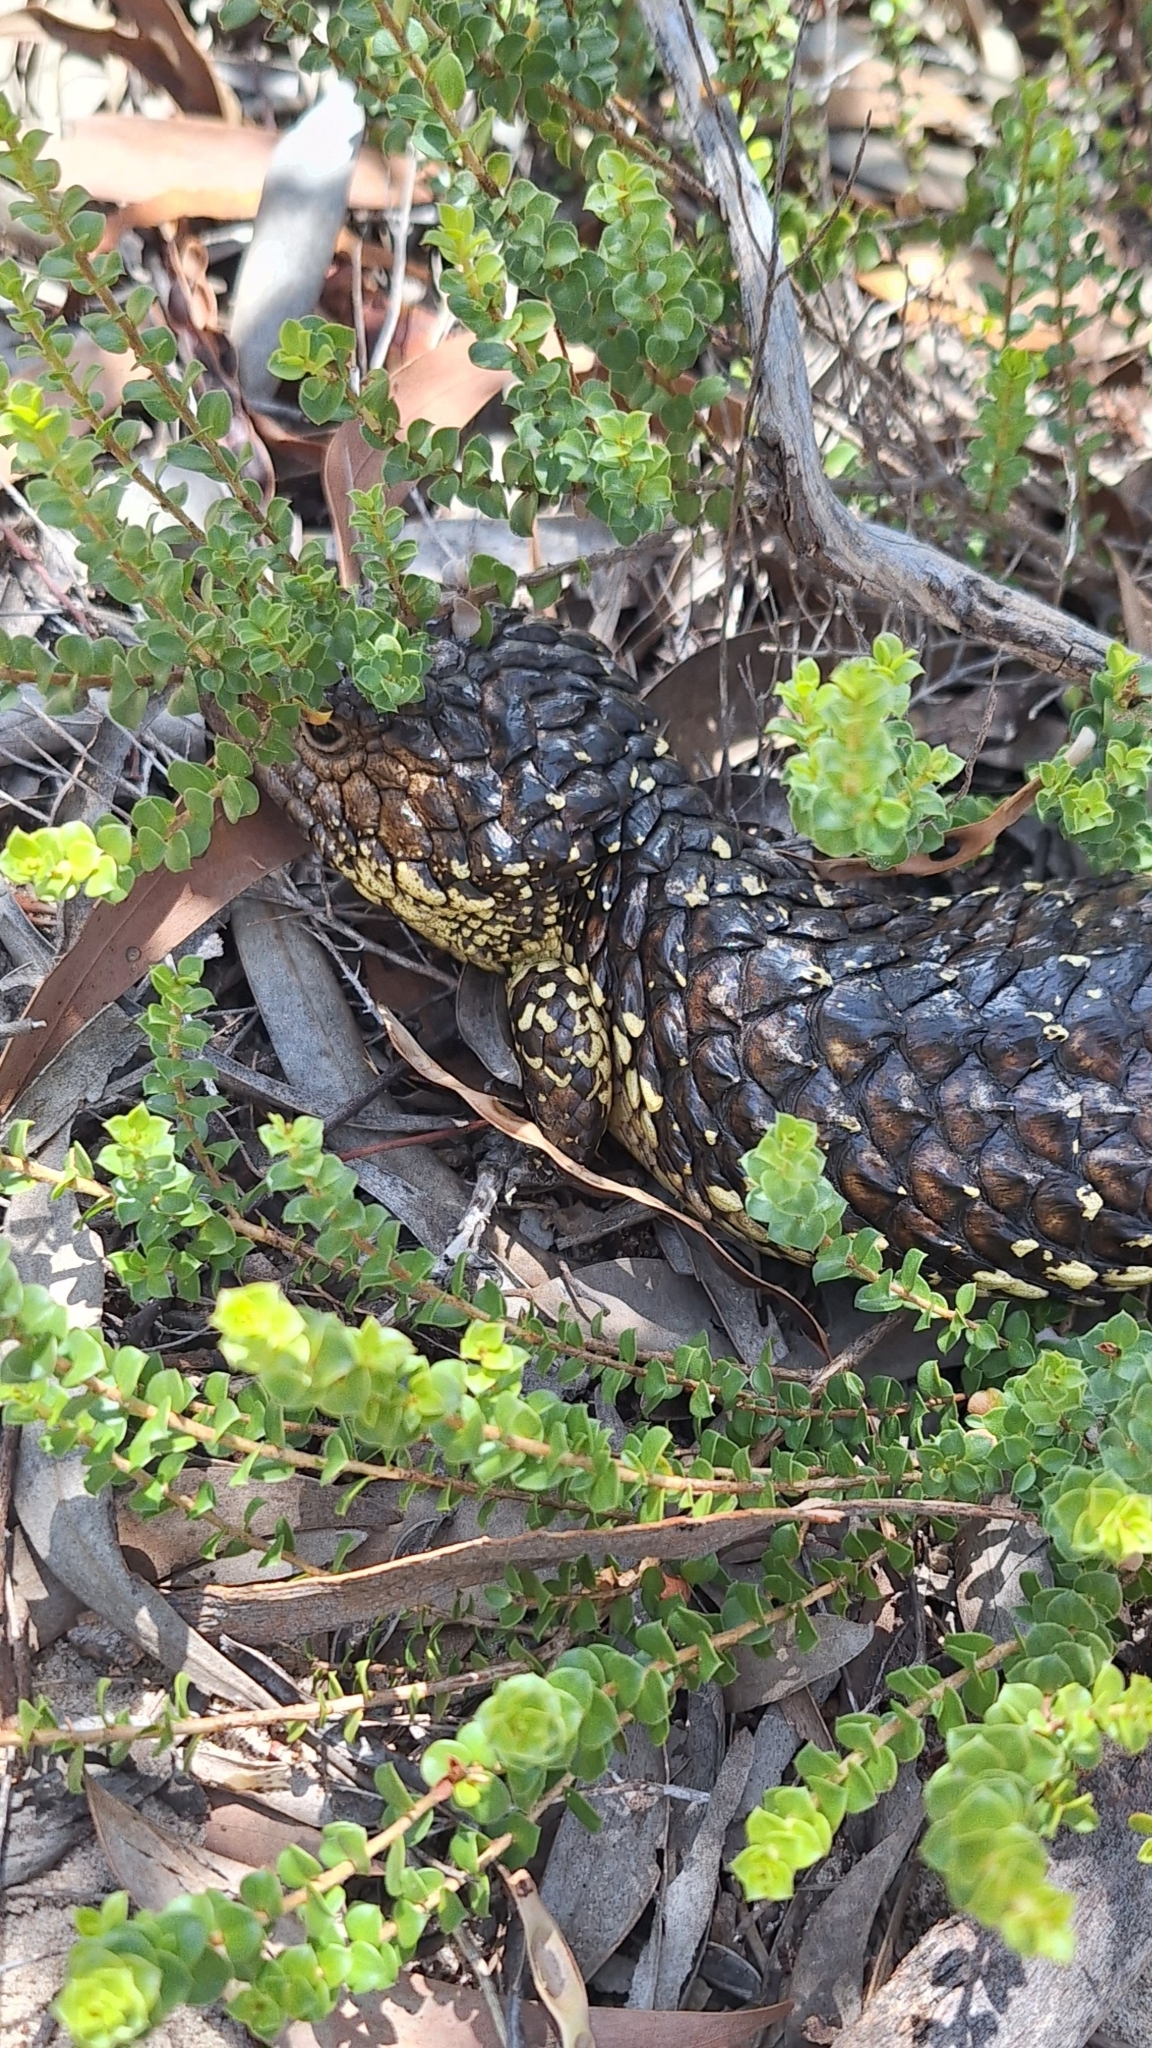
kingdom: Plantae
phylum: Tracheophyta
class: Magnoliopsida
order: Myrtales
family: Myrtaceae
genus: Kunzea
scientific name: Kunzea pomifera
